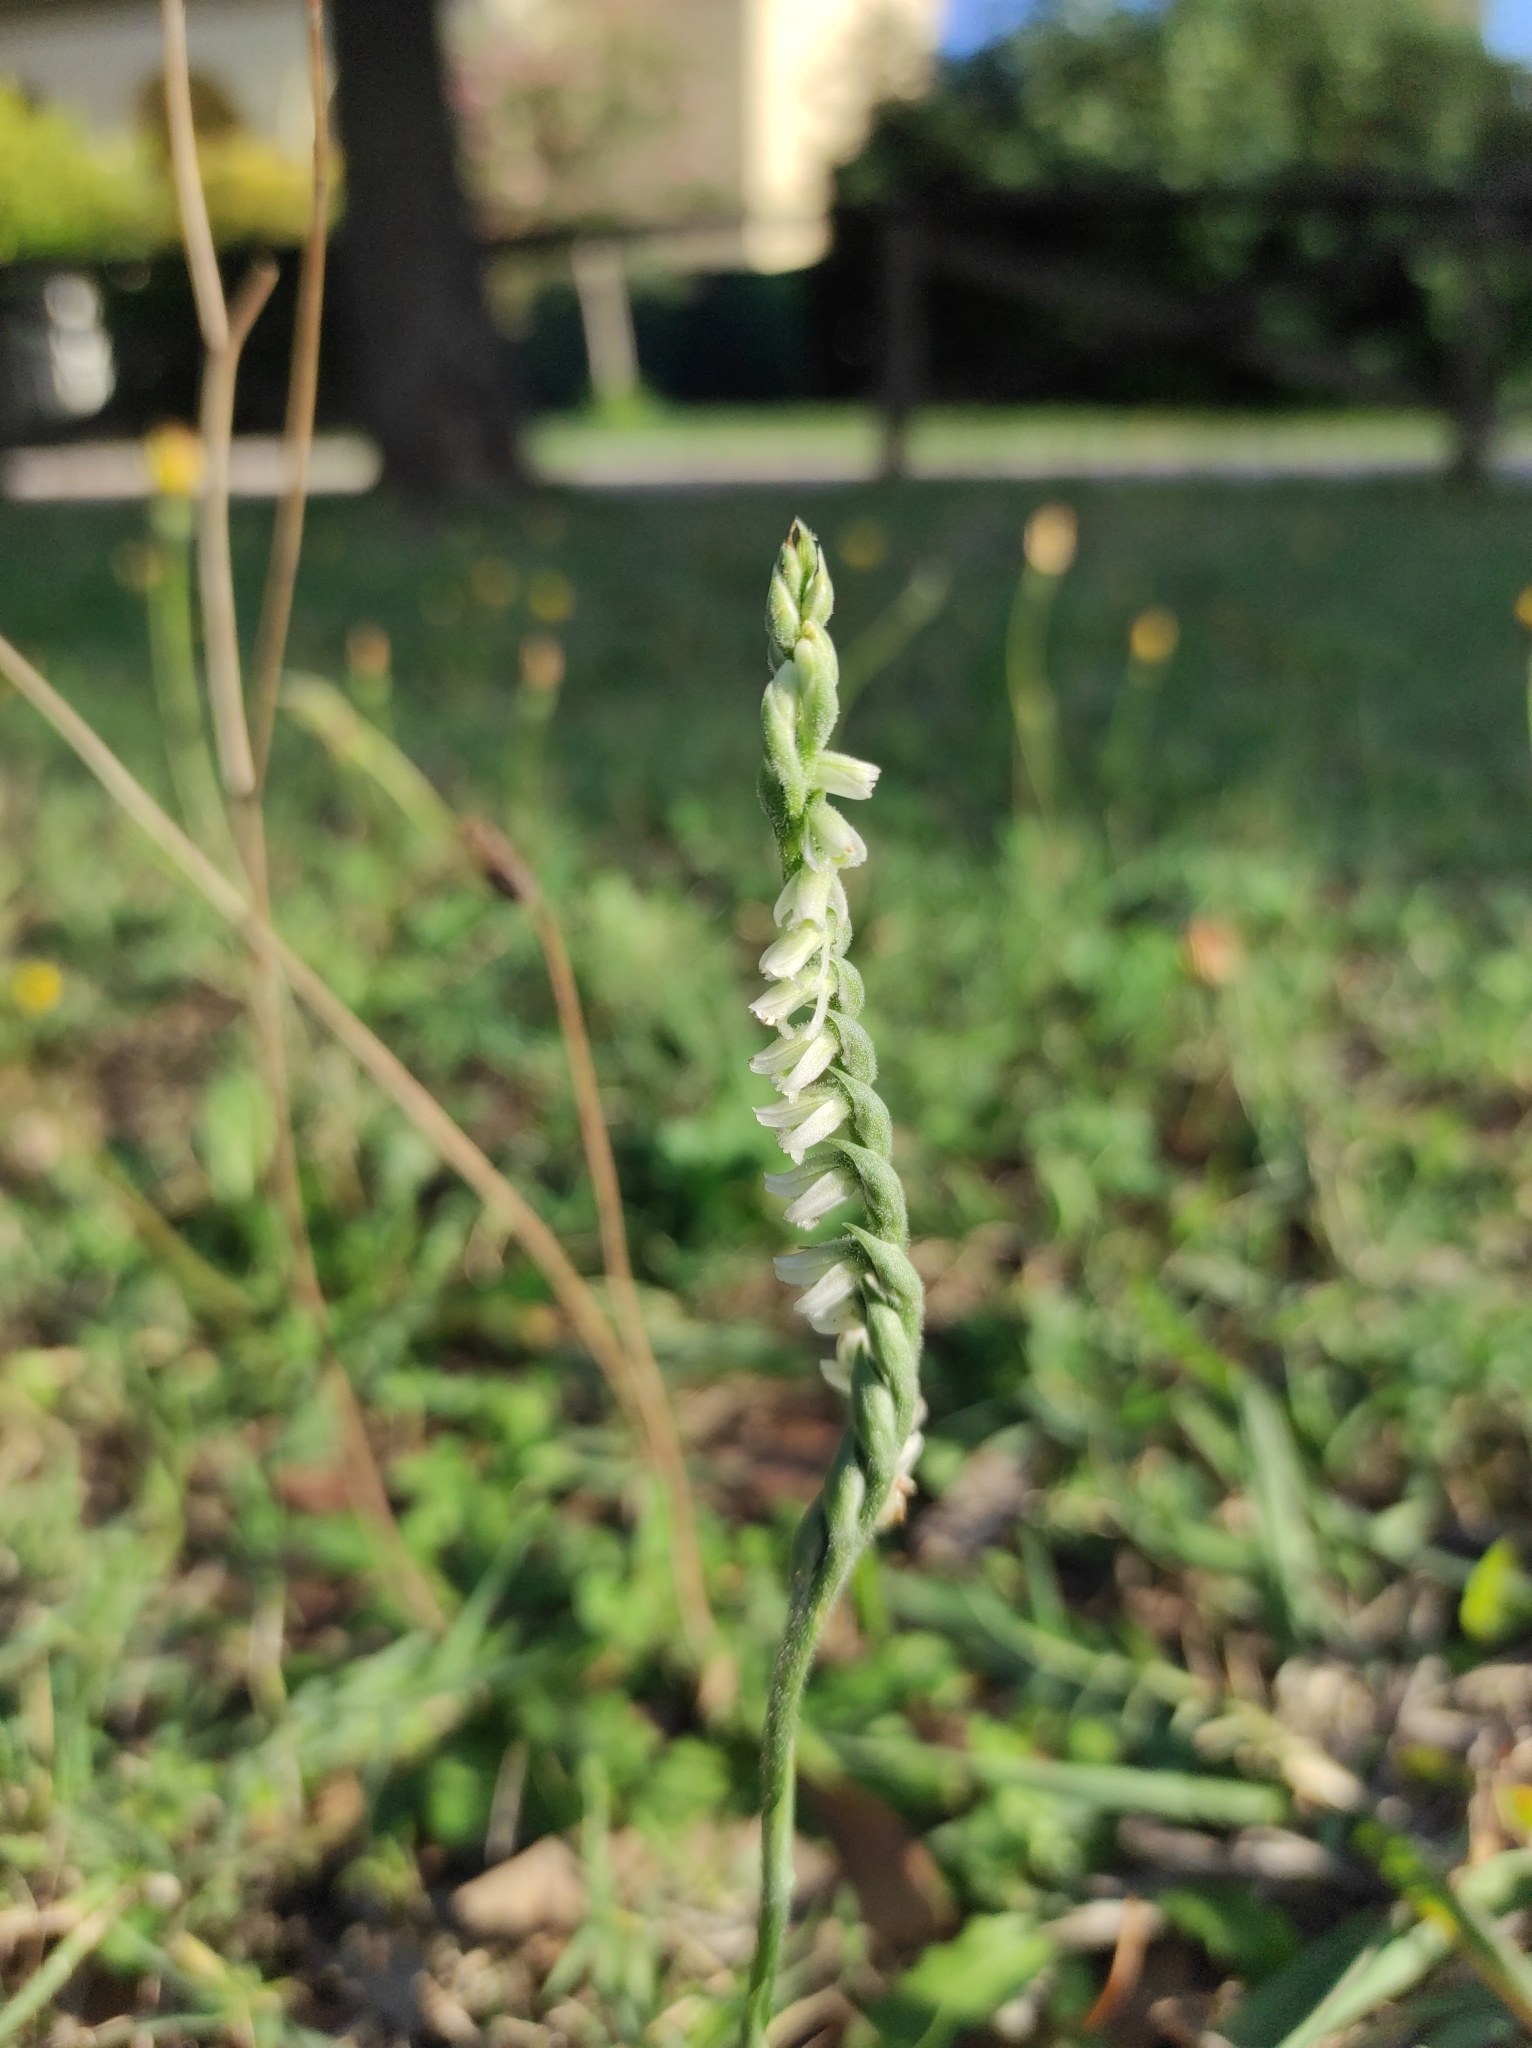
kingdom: Plantae
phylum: Tracheophyta
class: Liliopsida
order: Asparagales
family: Orchidaceae
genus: Spiranthes
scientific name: Spiranthes spiralis
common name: Autumn lady's-tresses
